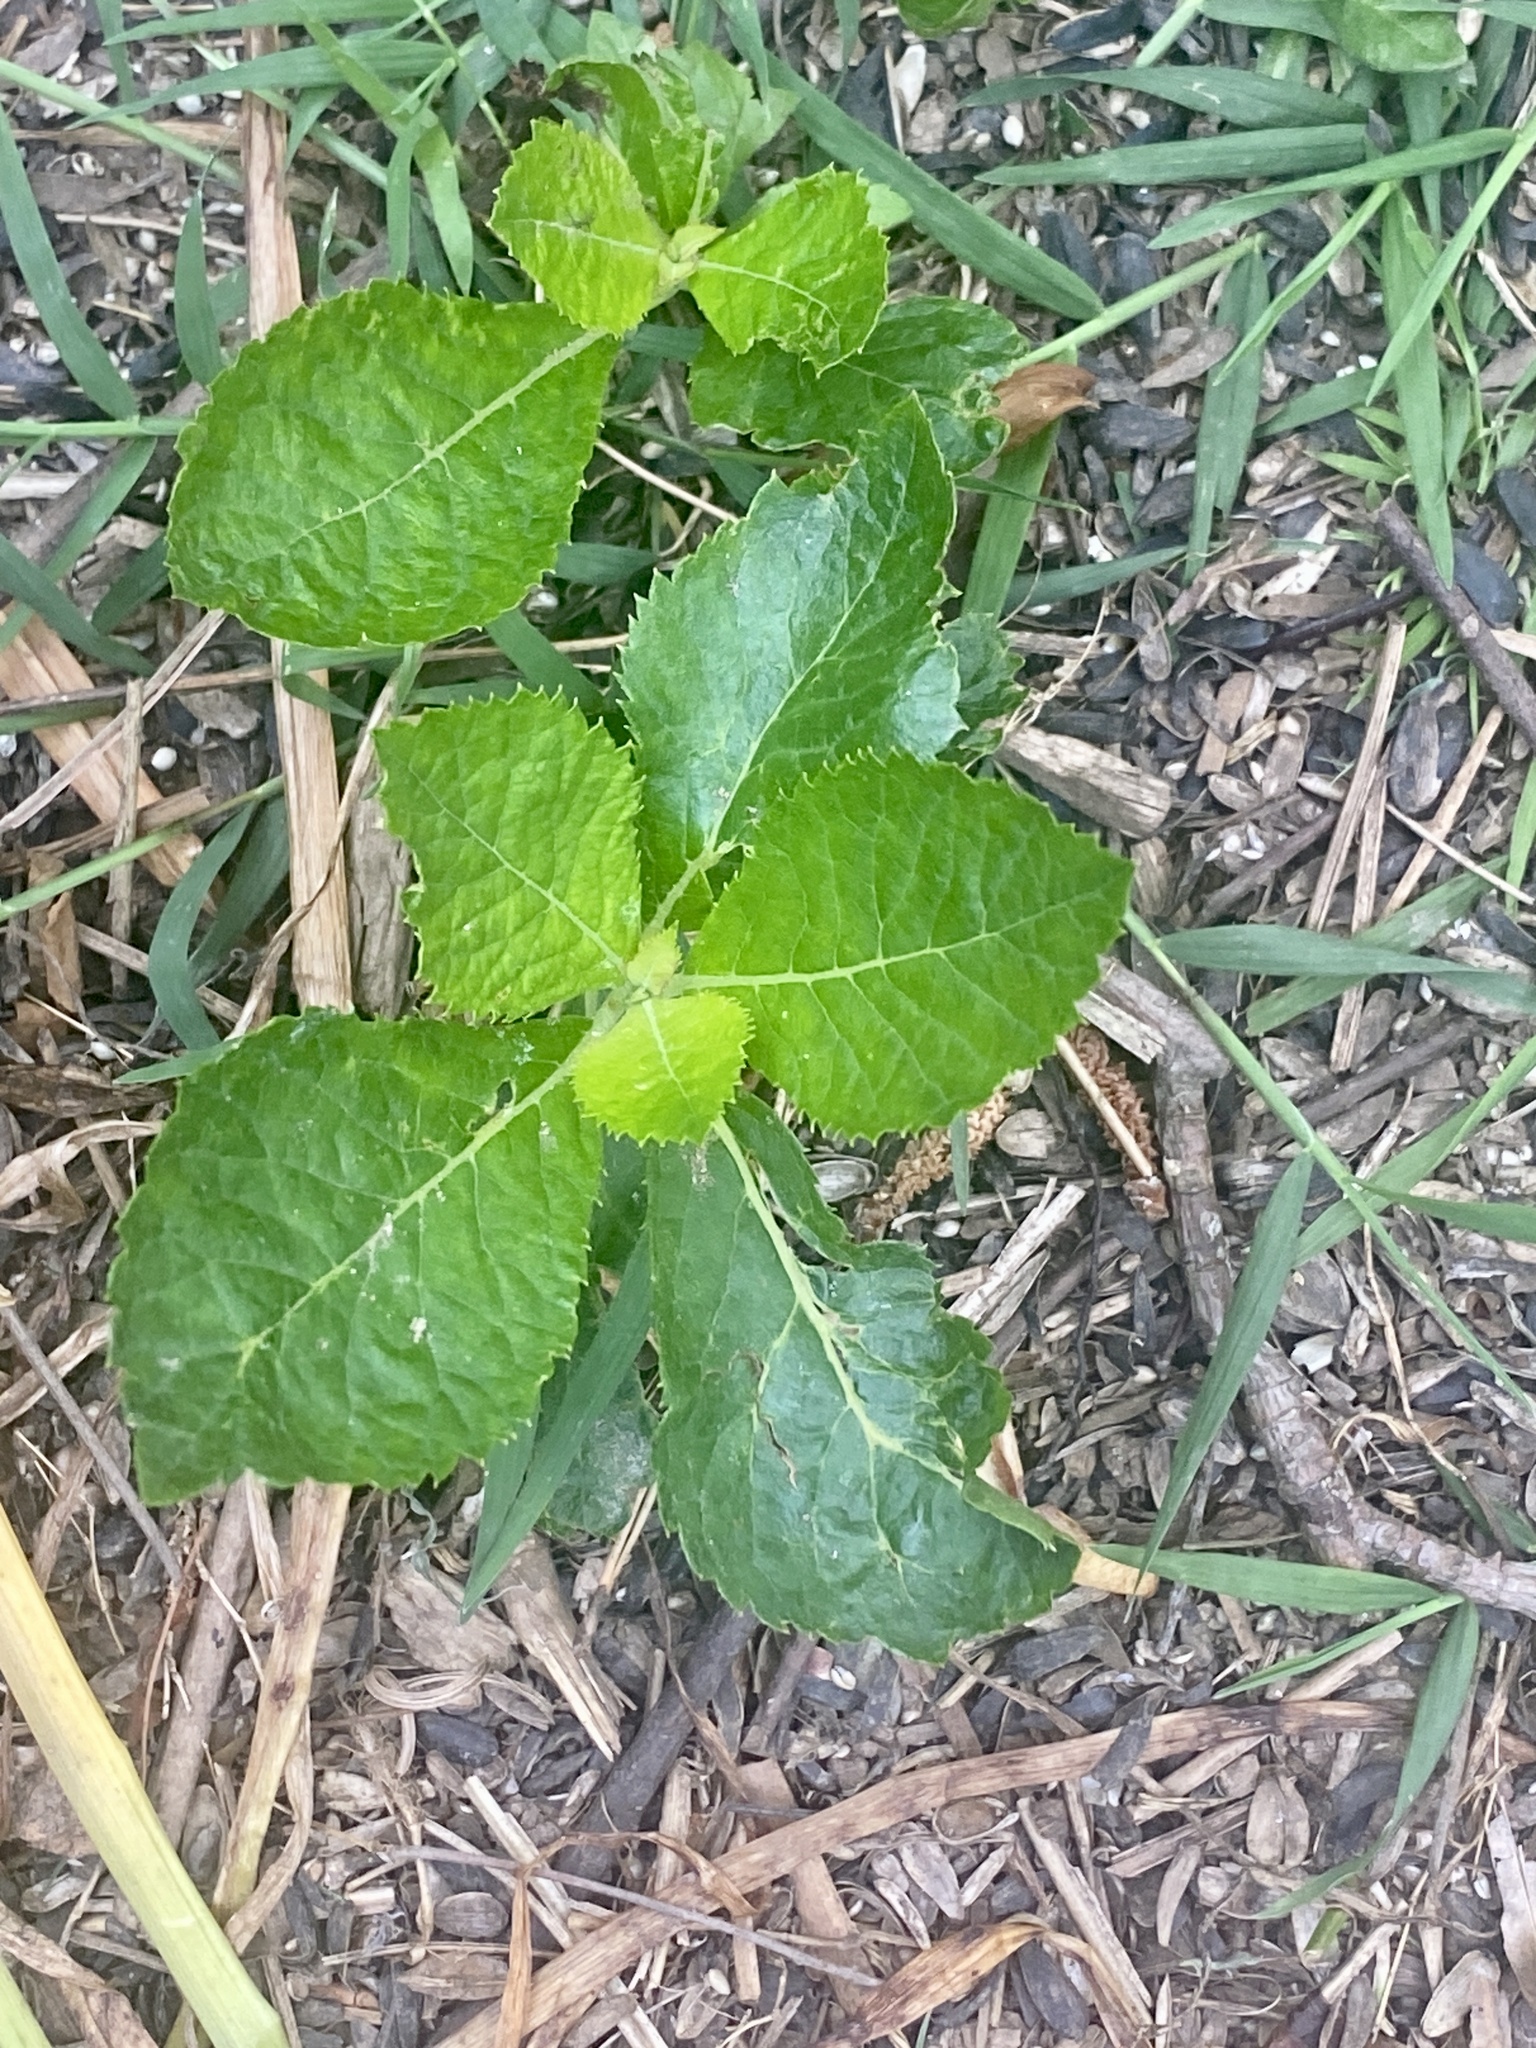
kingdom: Plantae
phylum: Tracheophyta
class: Magnoliopsida
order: Ericales
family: Clethraceae
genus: Clethra
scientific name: Clethra alnifolia
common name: Sweet pepperbush
